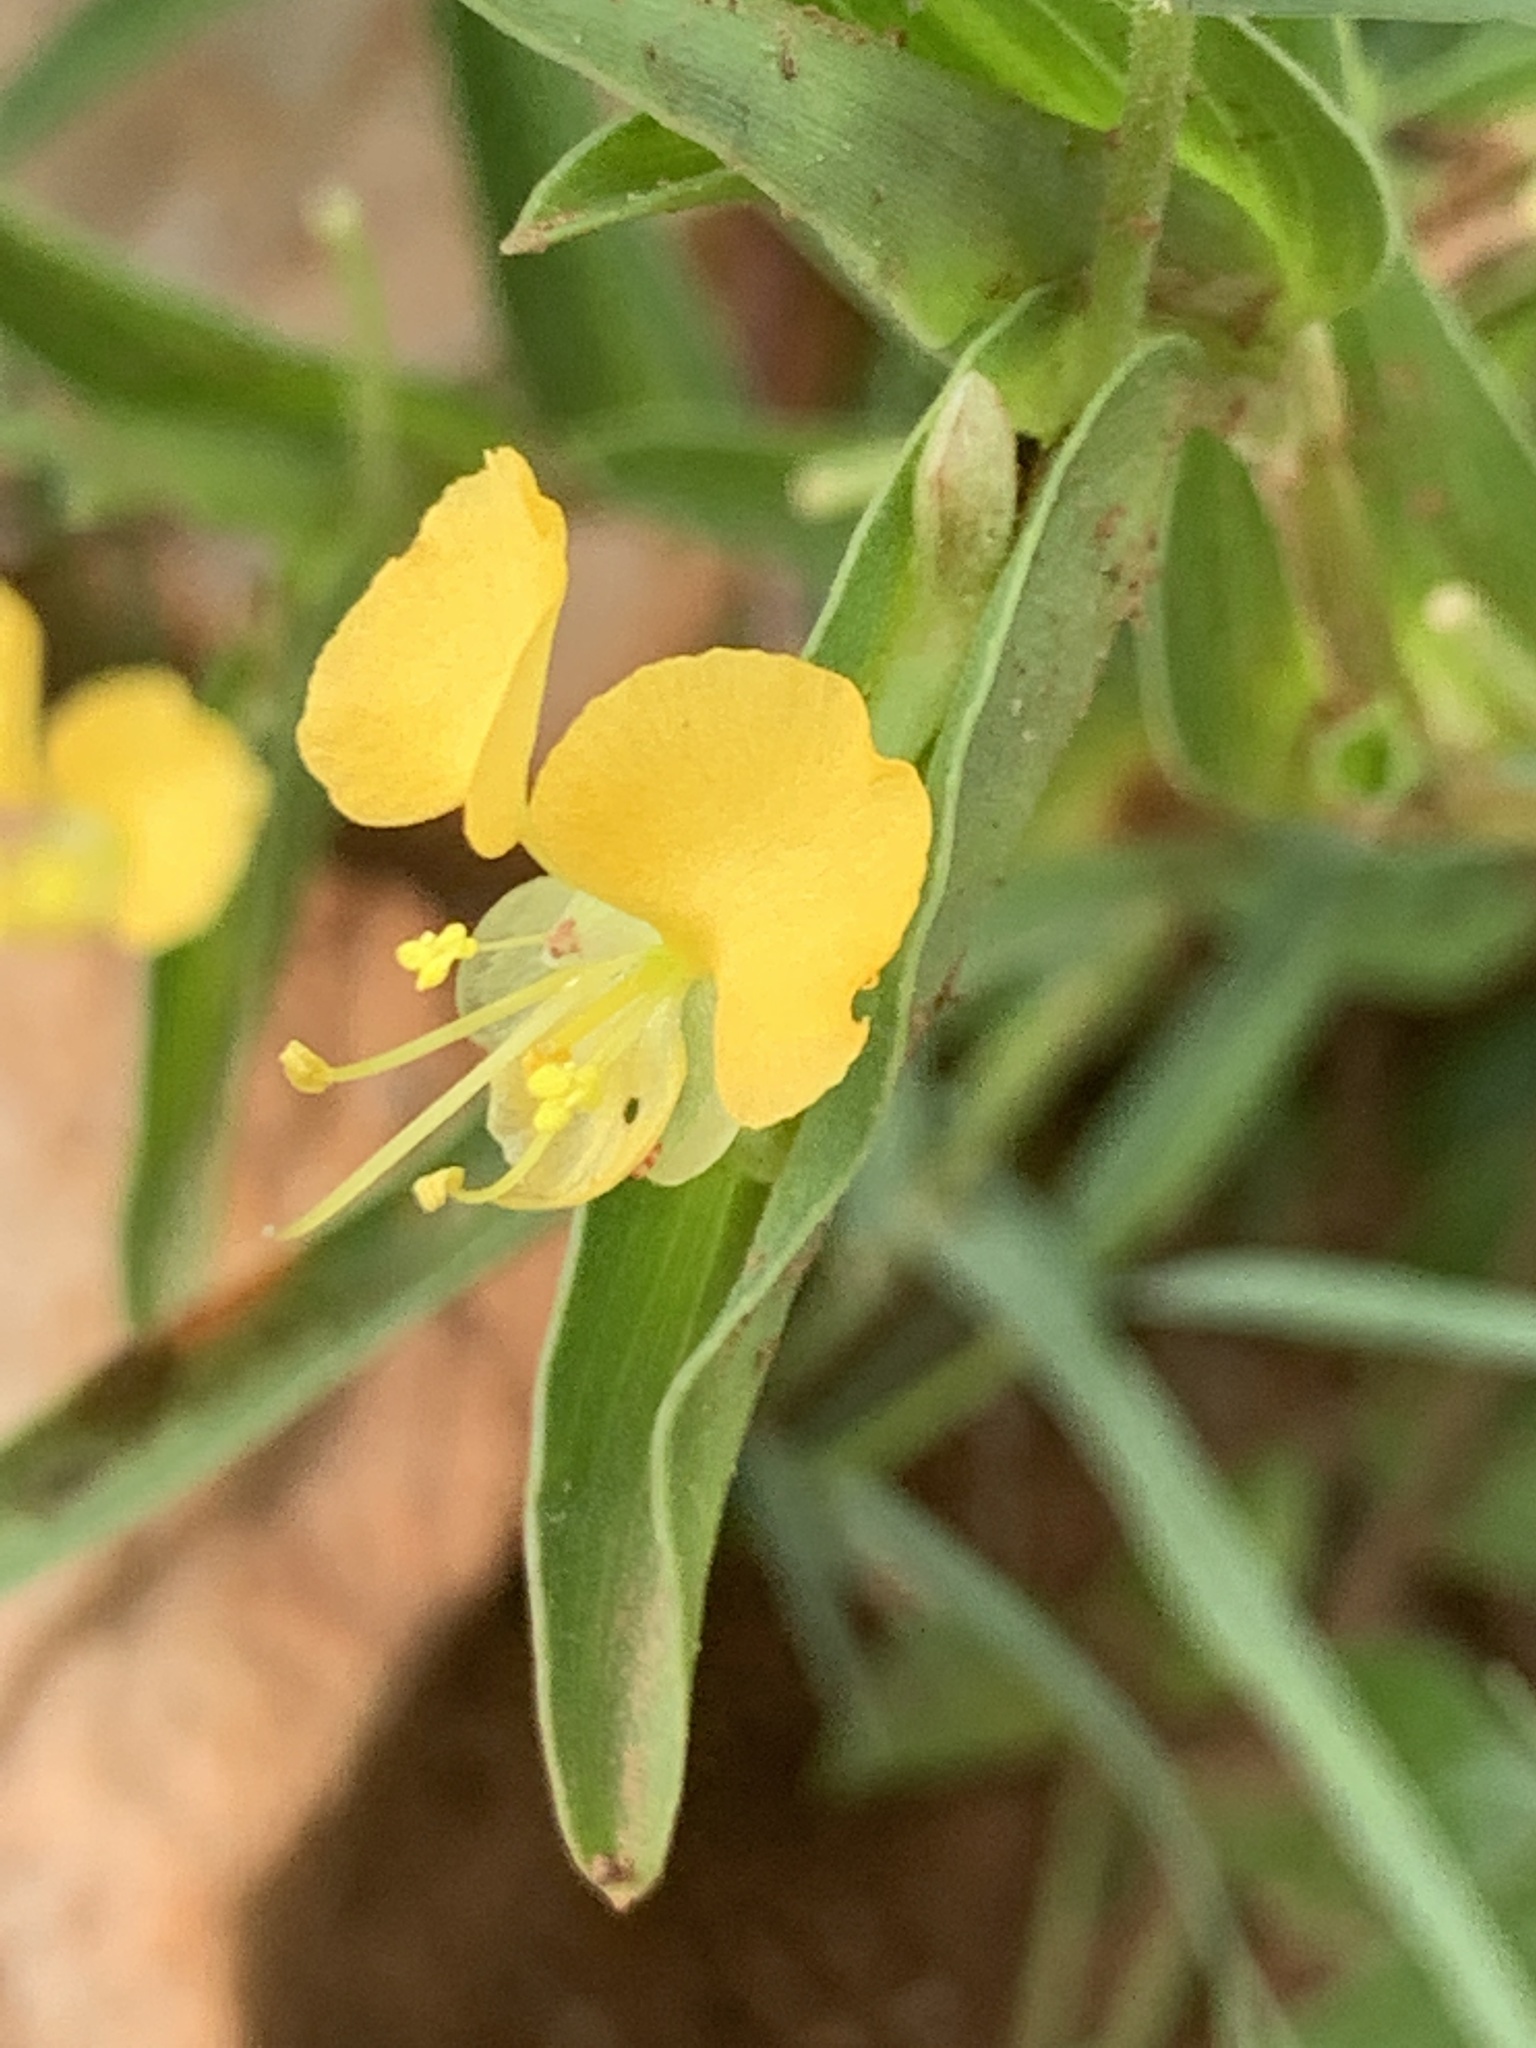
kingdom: Plantae
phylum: Tracheophyta
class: Liliopsida
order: Commelinales
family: Commelinaceae
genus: Commelina
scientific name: Commelina africana
